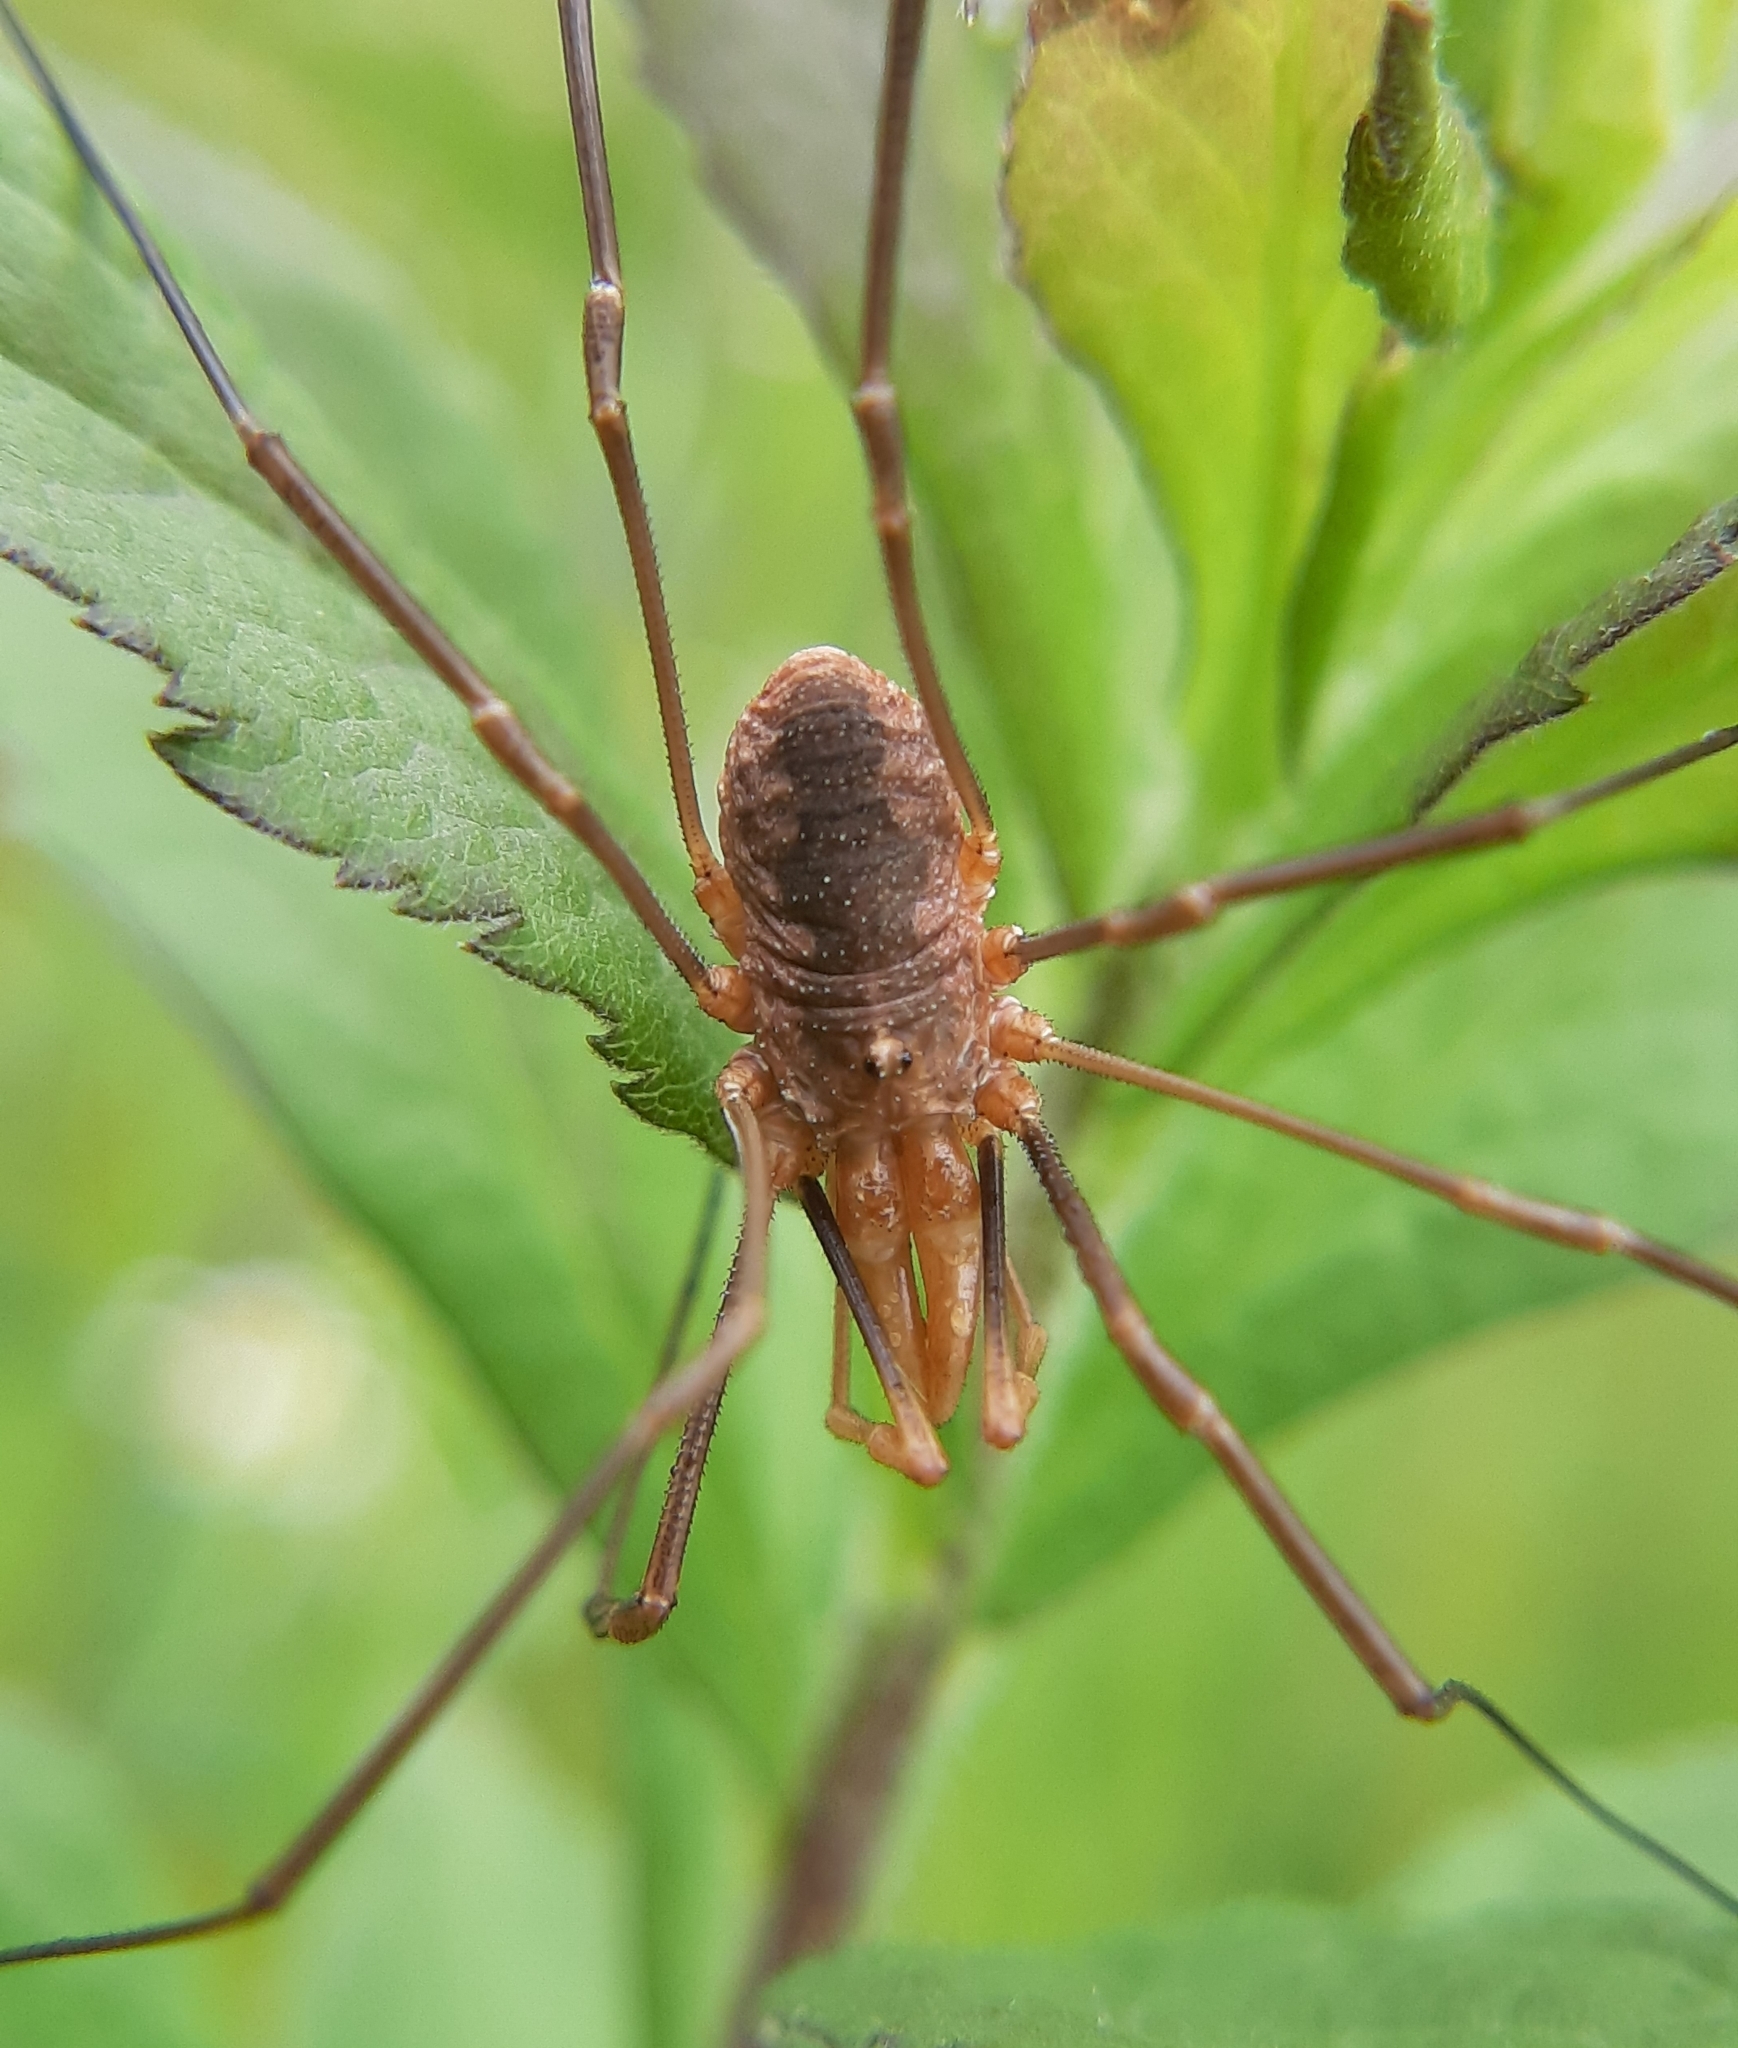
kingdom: Animalia
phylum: Arthropoda
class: Arachnida
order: Opiliones
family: Phalangiidae
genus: Phalangium
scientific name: Phalangium opilio
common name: Daddy longleg
